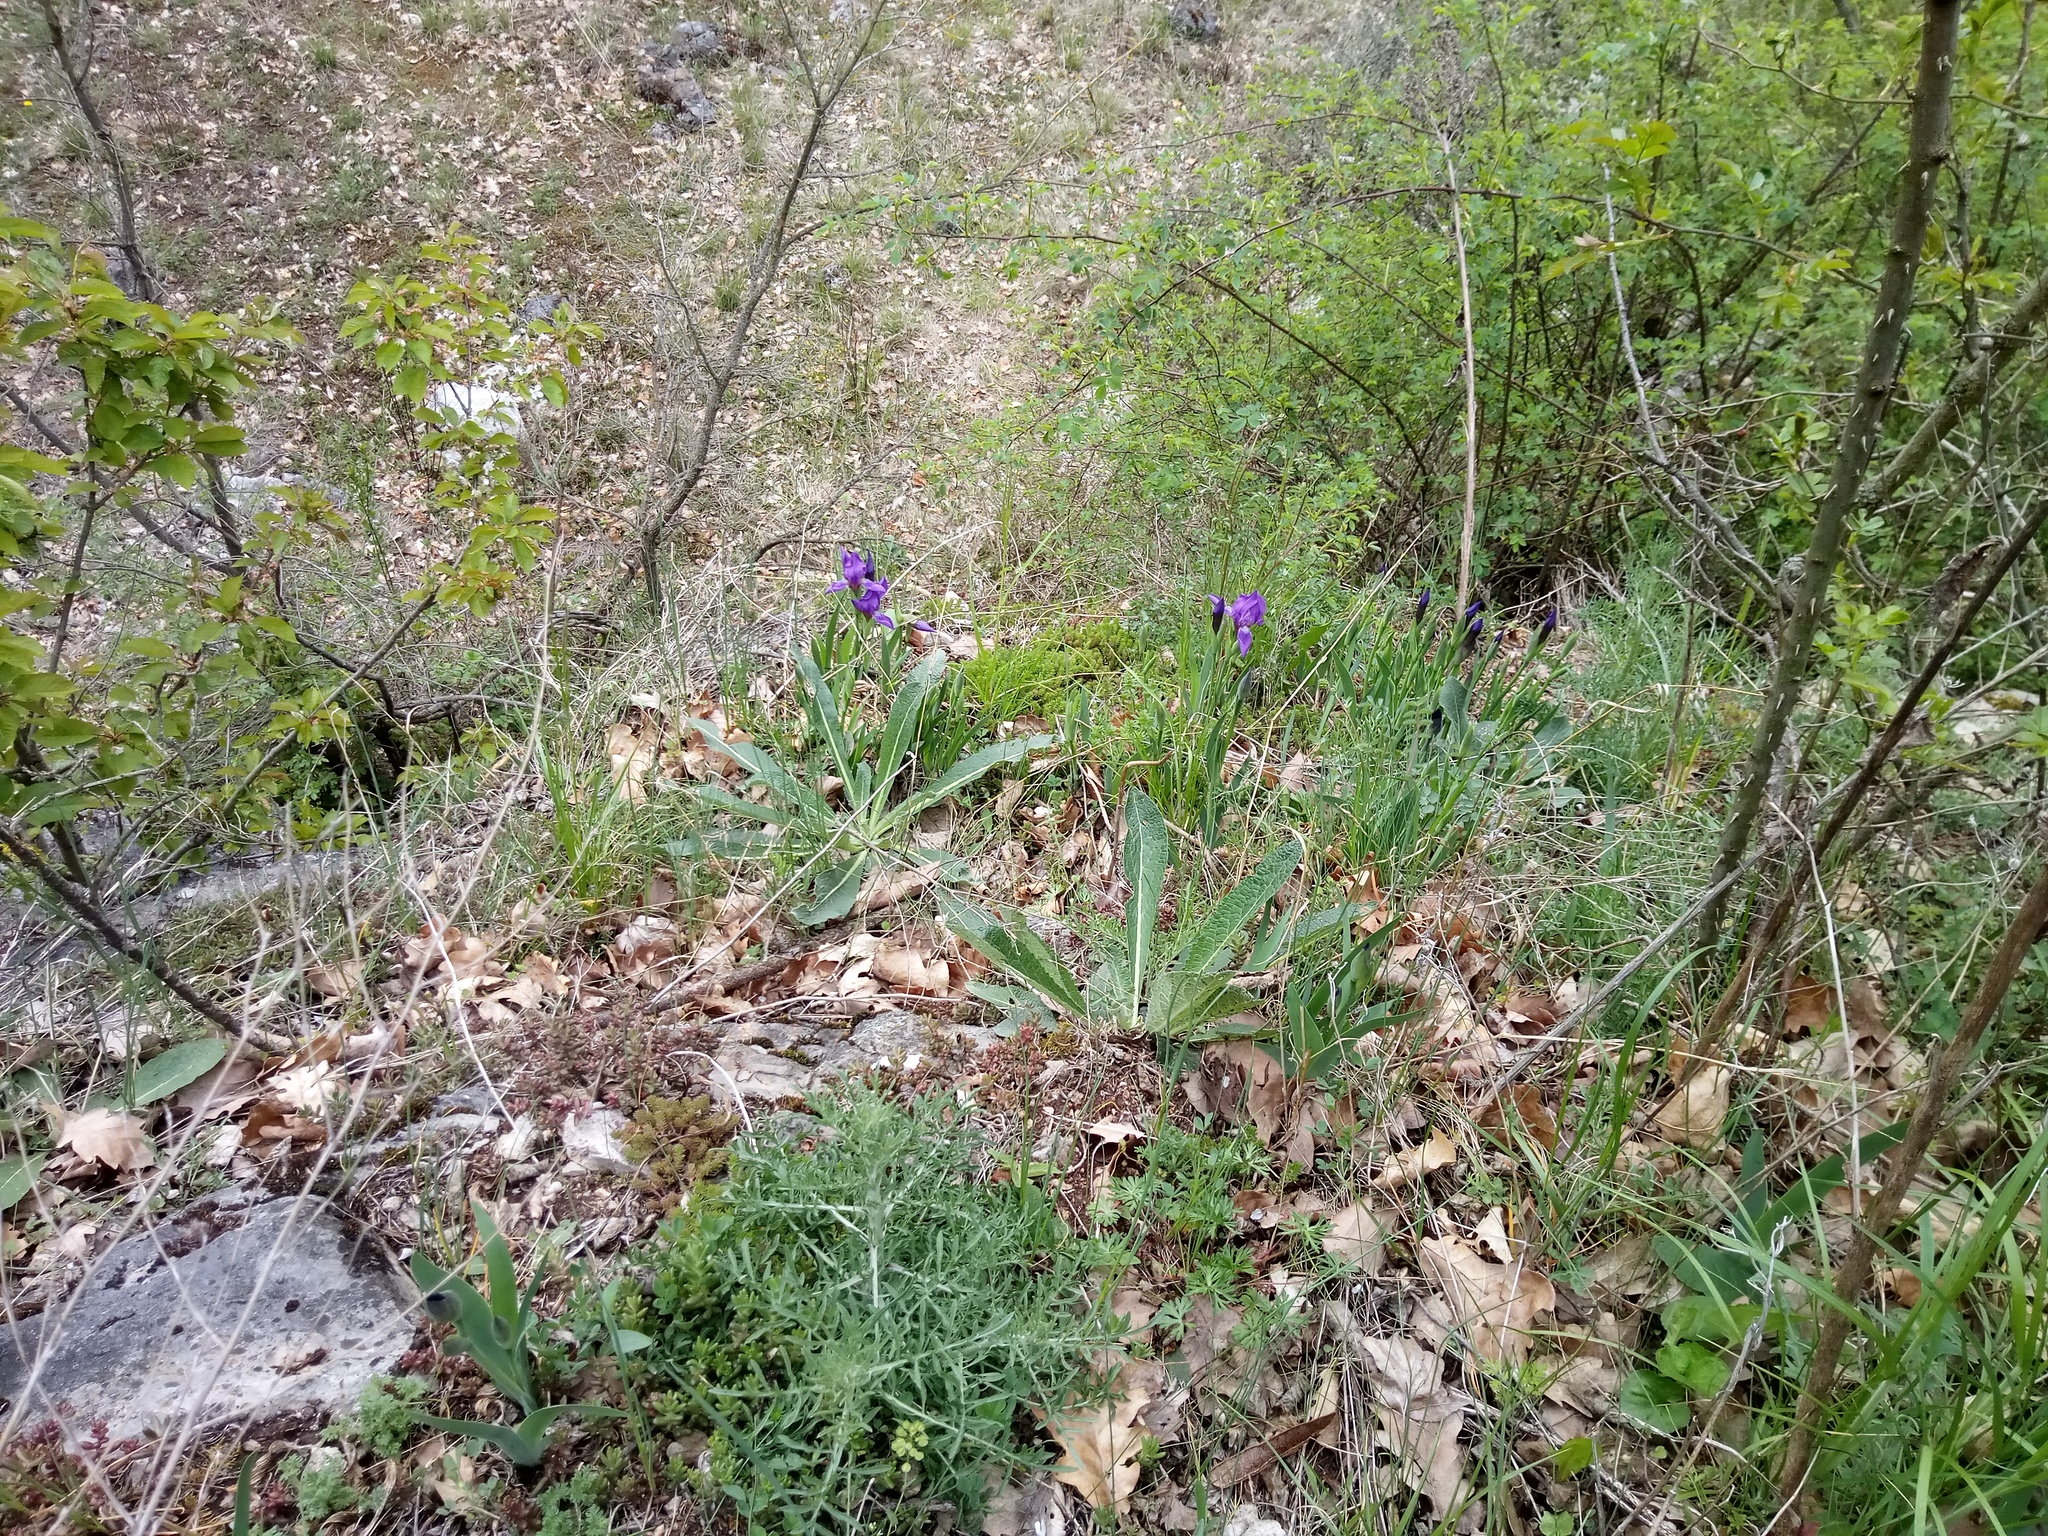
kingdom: Plantae
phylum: Tracheophyta
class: Liliopsida
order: Asparagales
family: Iridaceae
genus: Iris
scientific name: Iris aphylla
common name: Stool iris
